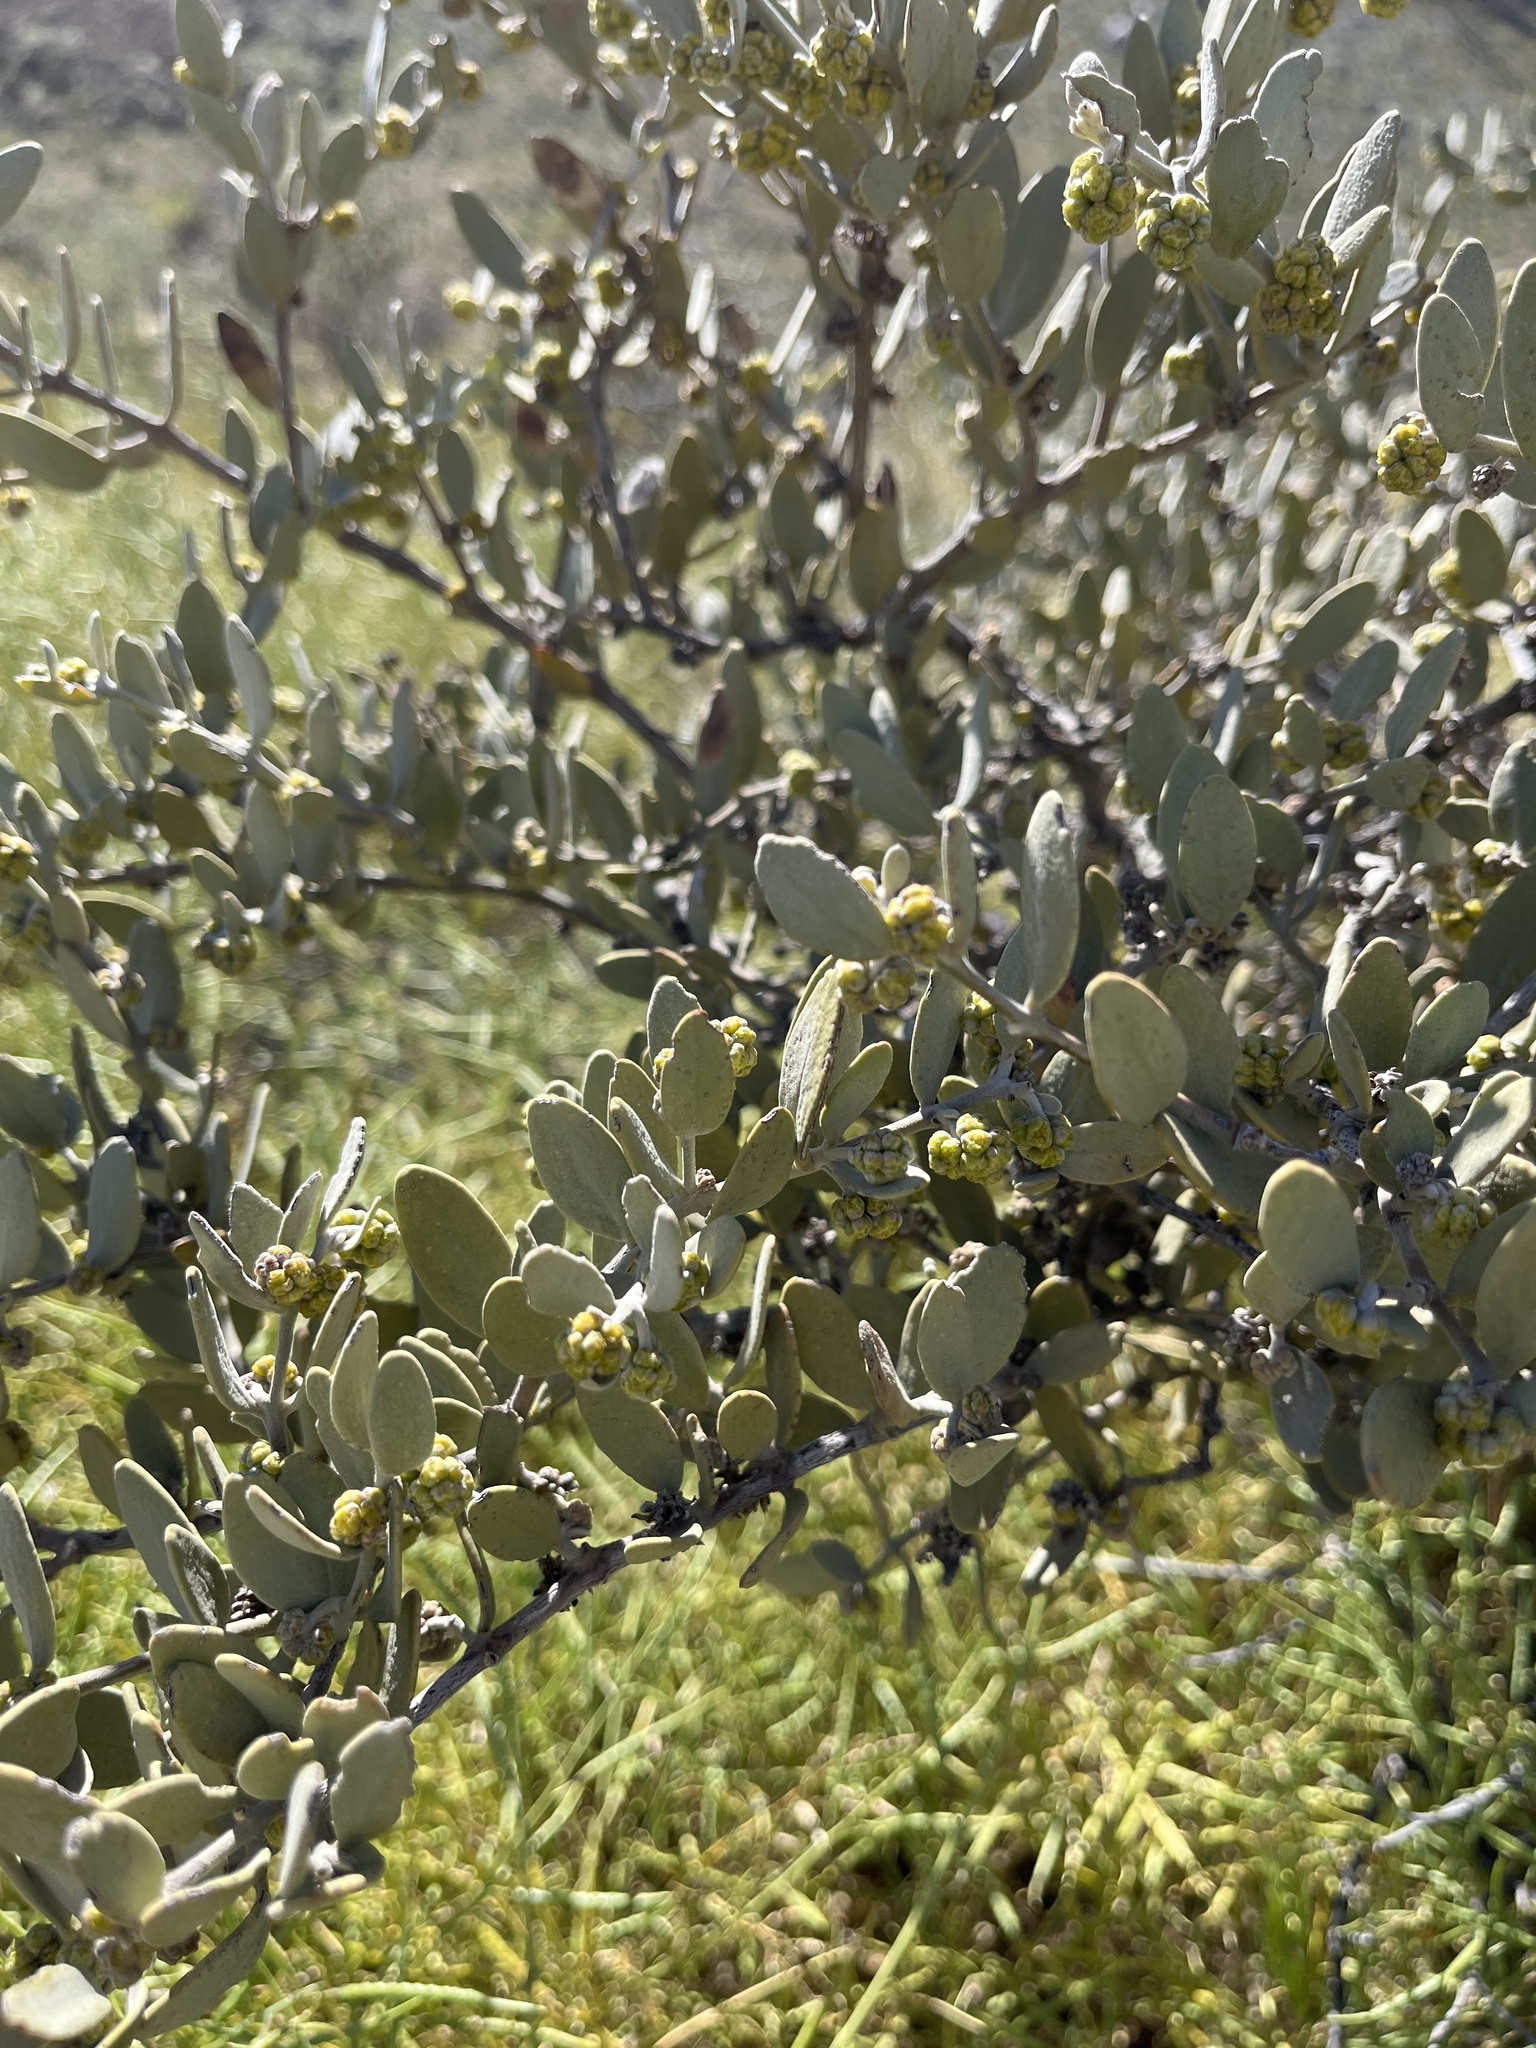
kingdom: Plantae
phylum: Tracheophyta
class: Magnoliopsida
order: Caryophyllales
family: Simmondsiaceae
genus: Simmondsia
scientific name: Simmondsia chinensis
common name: Jojoba
